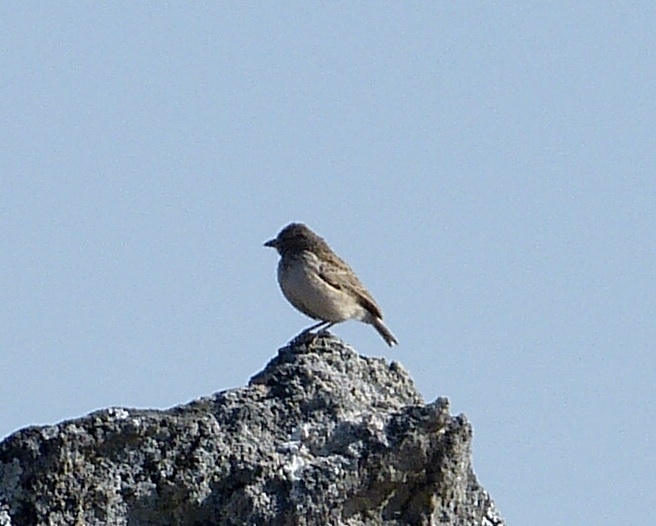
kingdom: Animalia
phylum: Chordata
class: Aves
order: Passeriformes
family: Alaudidae
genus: Mirafra
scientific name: Mirafra hova
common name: Madagascar lark
